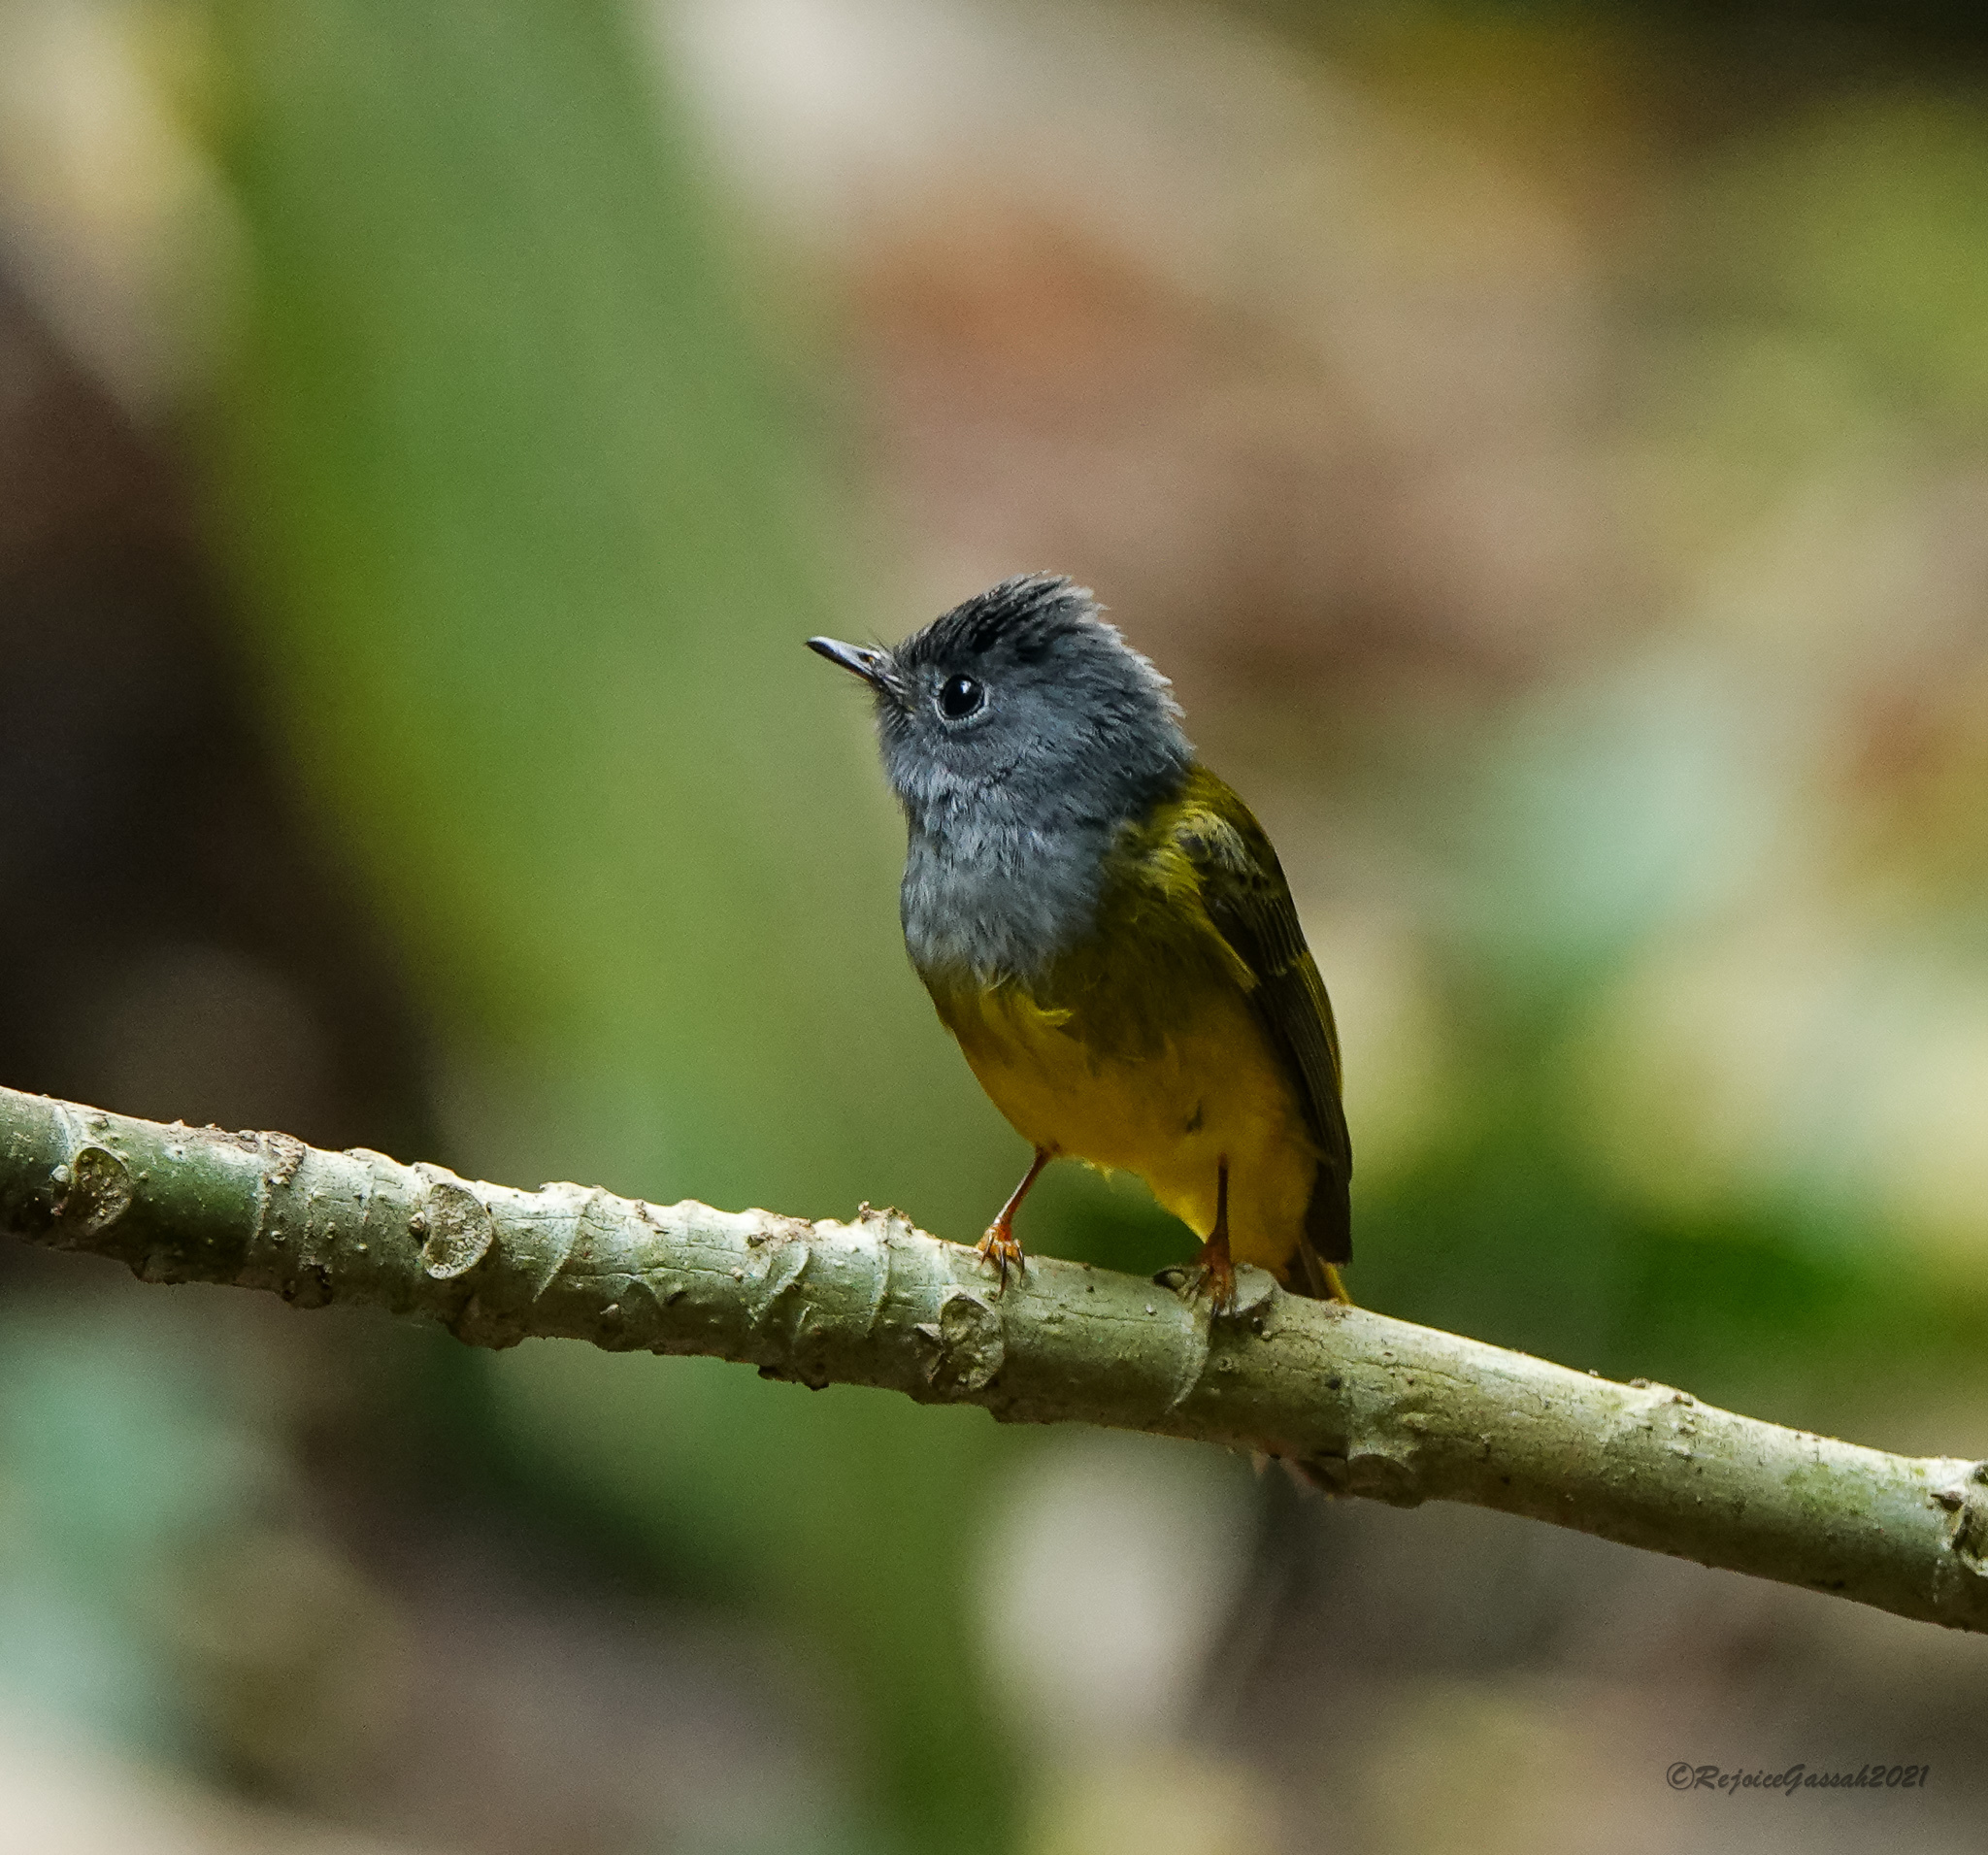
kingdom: Animalia
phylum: Chordata
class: Aves
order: Passeriformes
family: Stenostiridae
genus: Culicicapa
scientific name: Culicicapa ceylonensis
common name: Grey-headed canary-flycatcher
